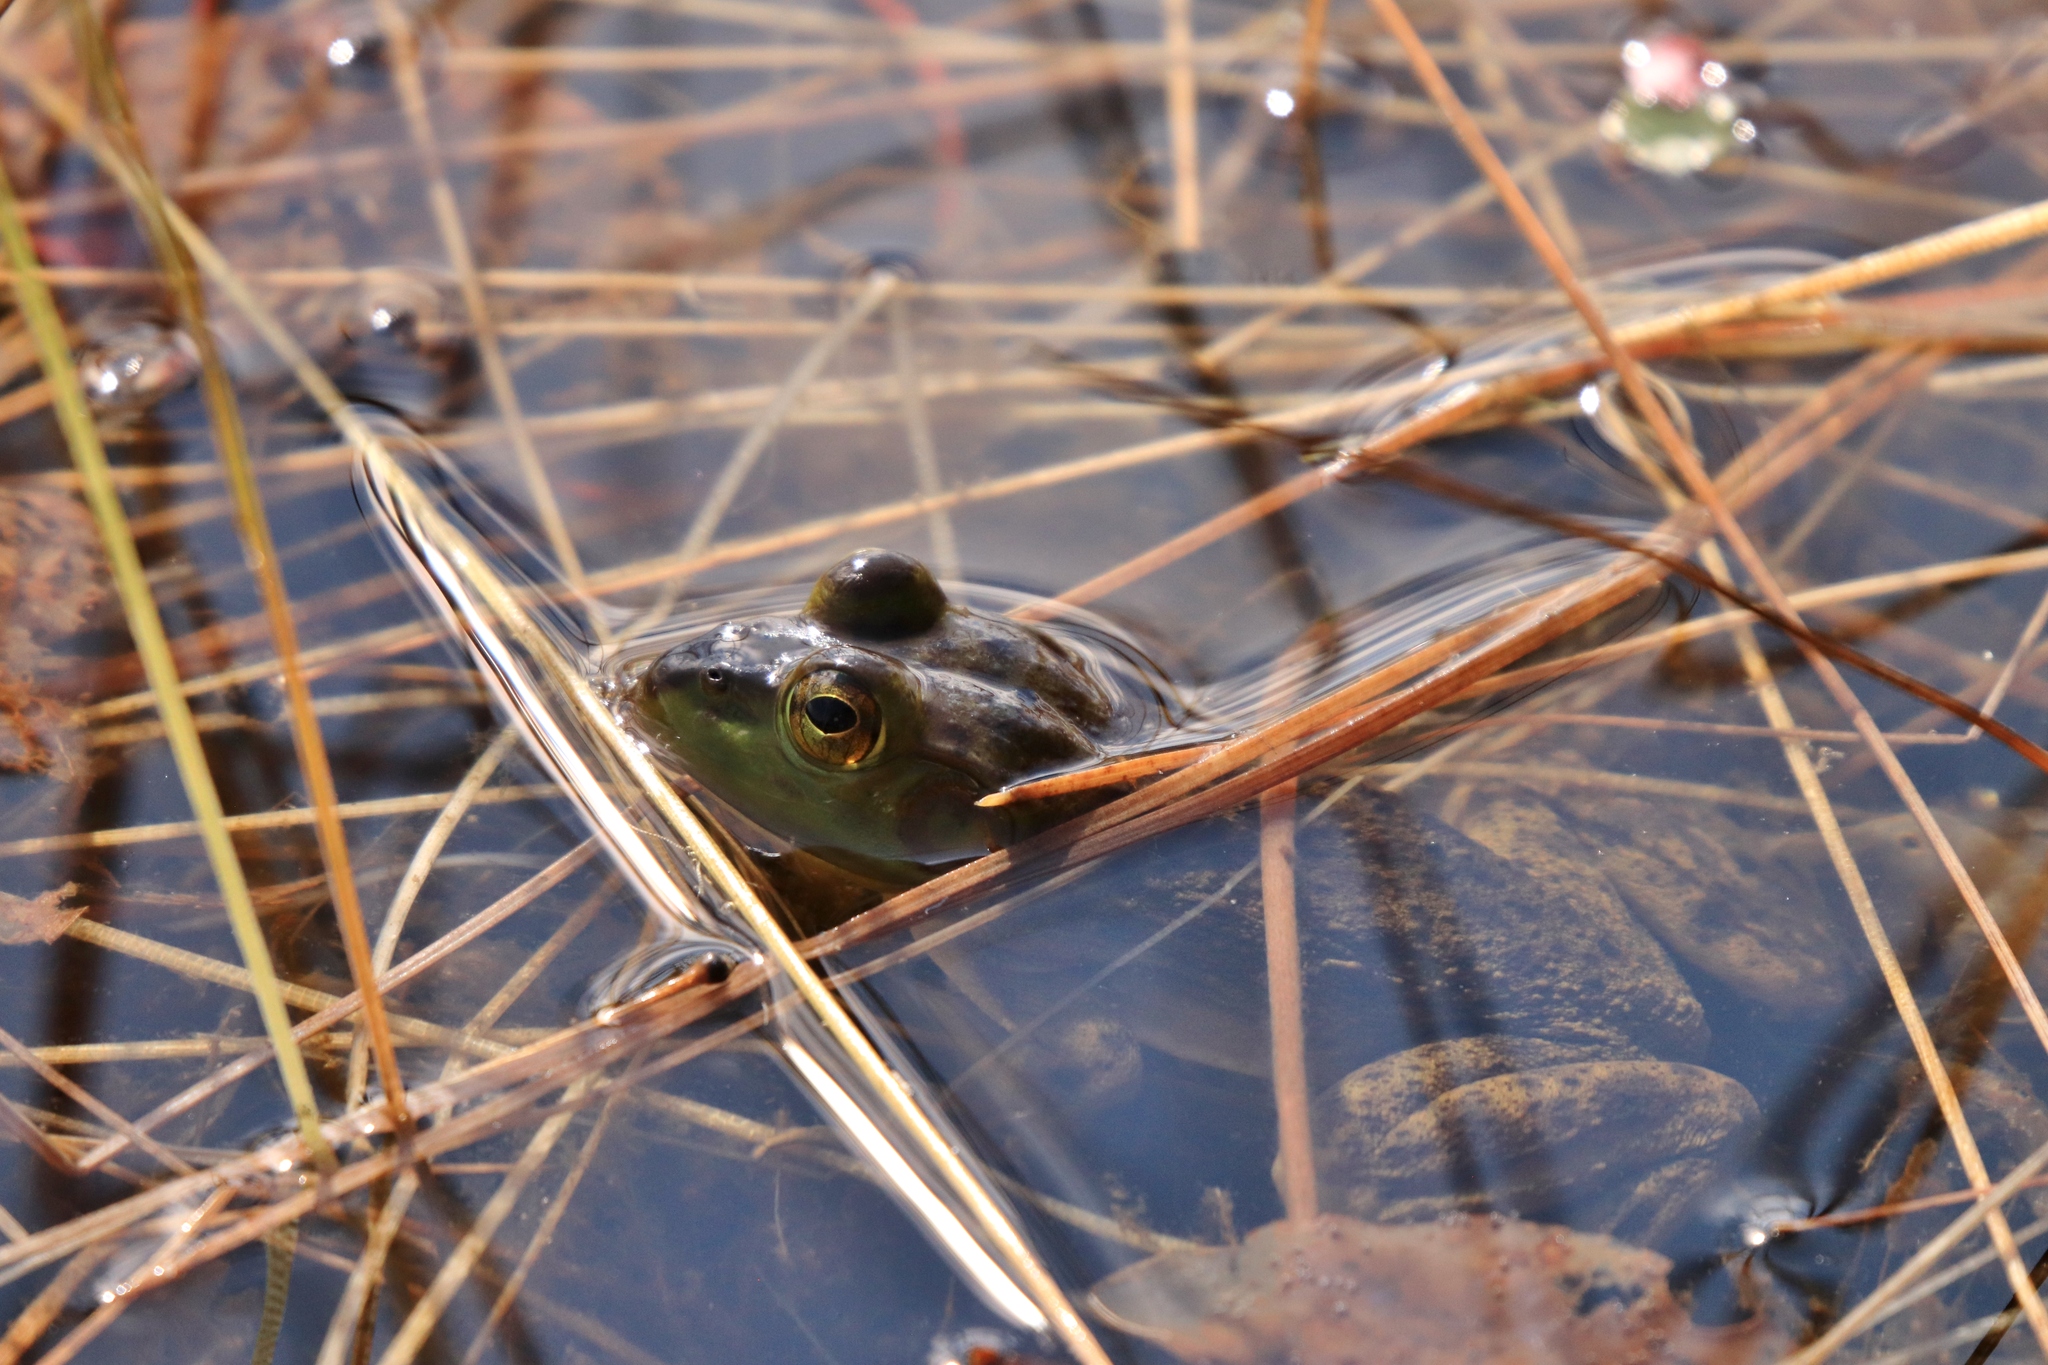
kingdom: Animalia
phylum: Chordata
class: Amphibia
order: Anura
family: Ranidae
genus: Lithobates
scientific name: Lithobates catesbeianus
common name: American bullfrog
